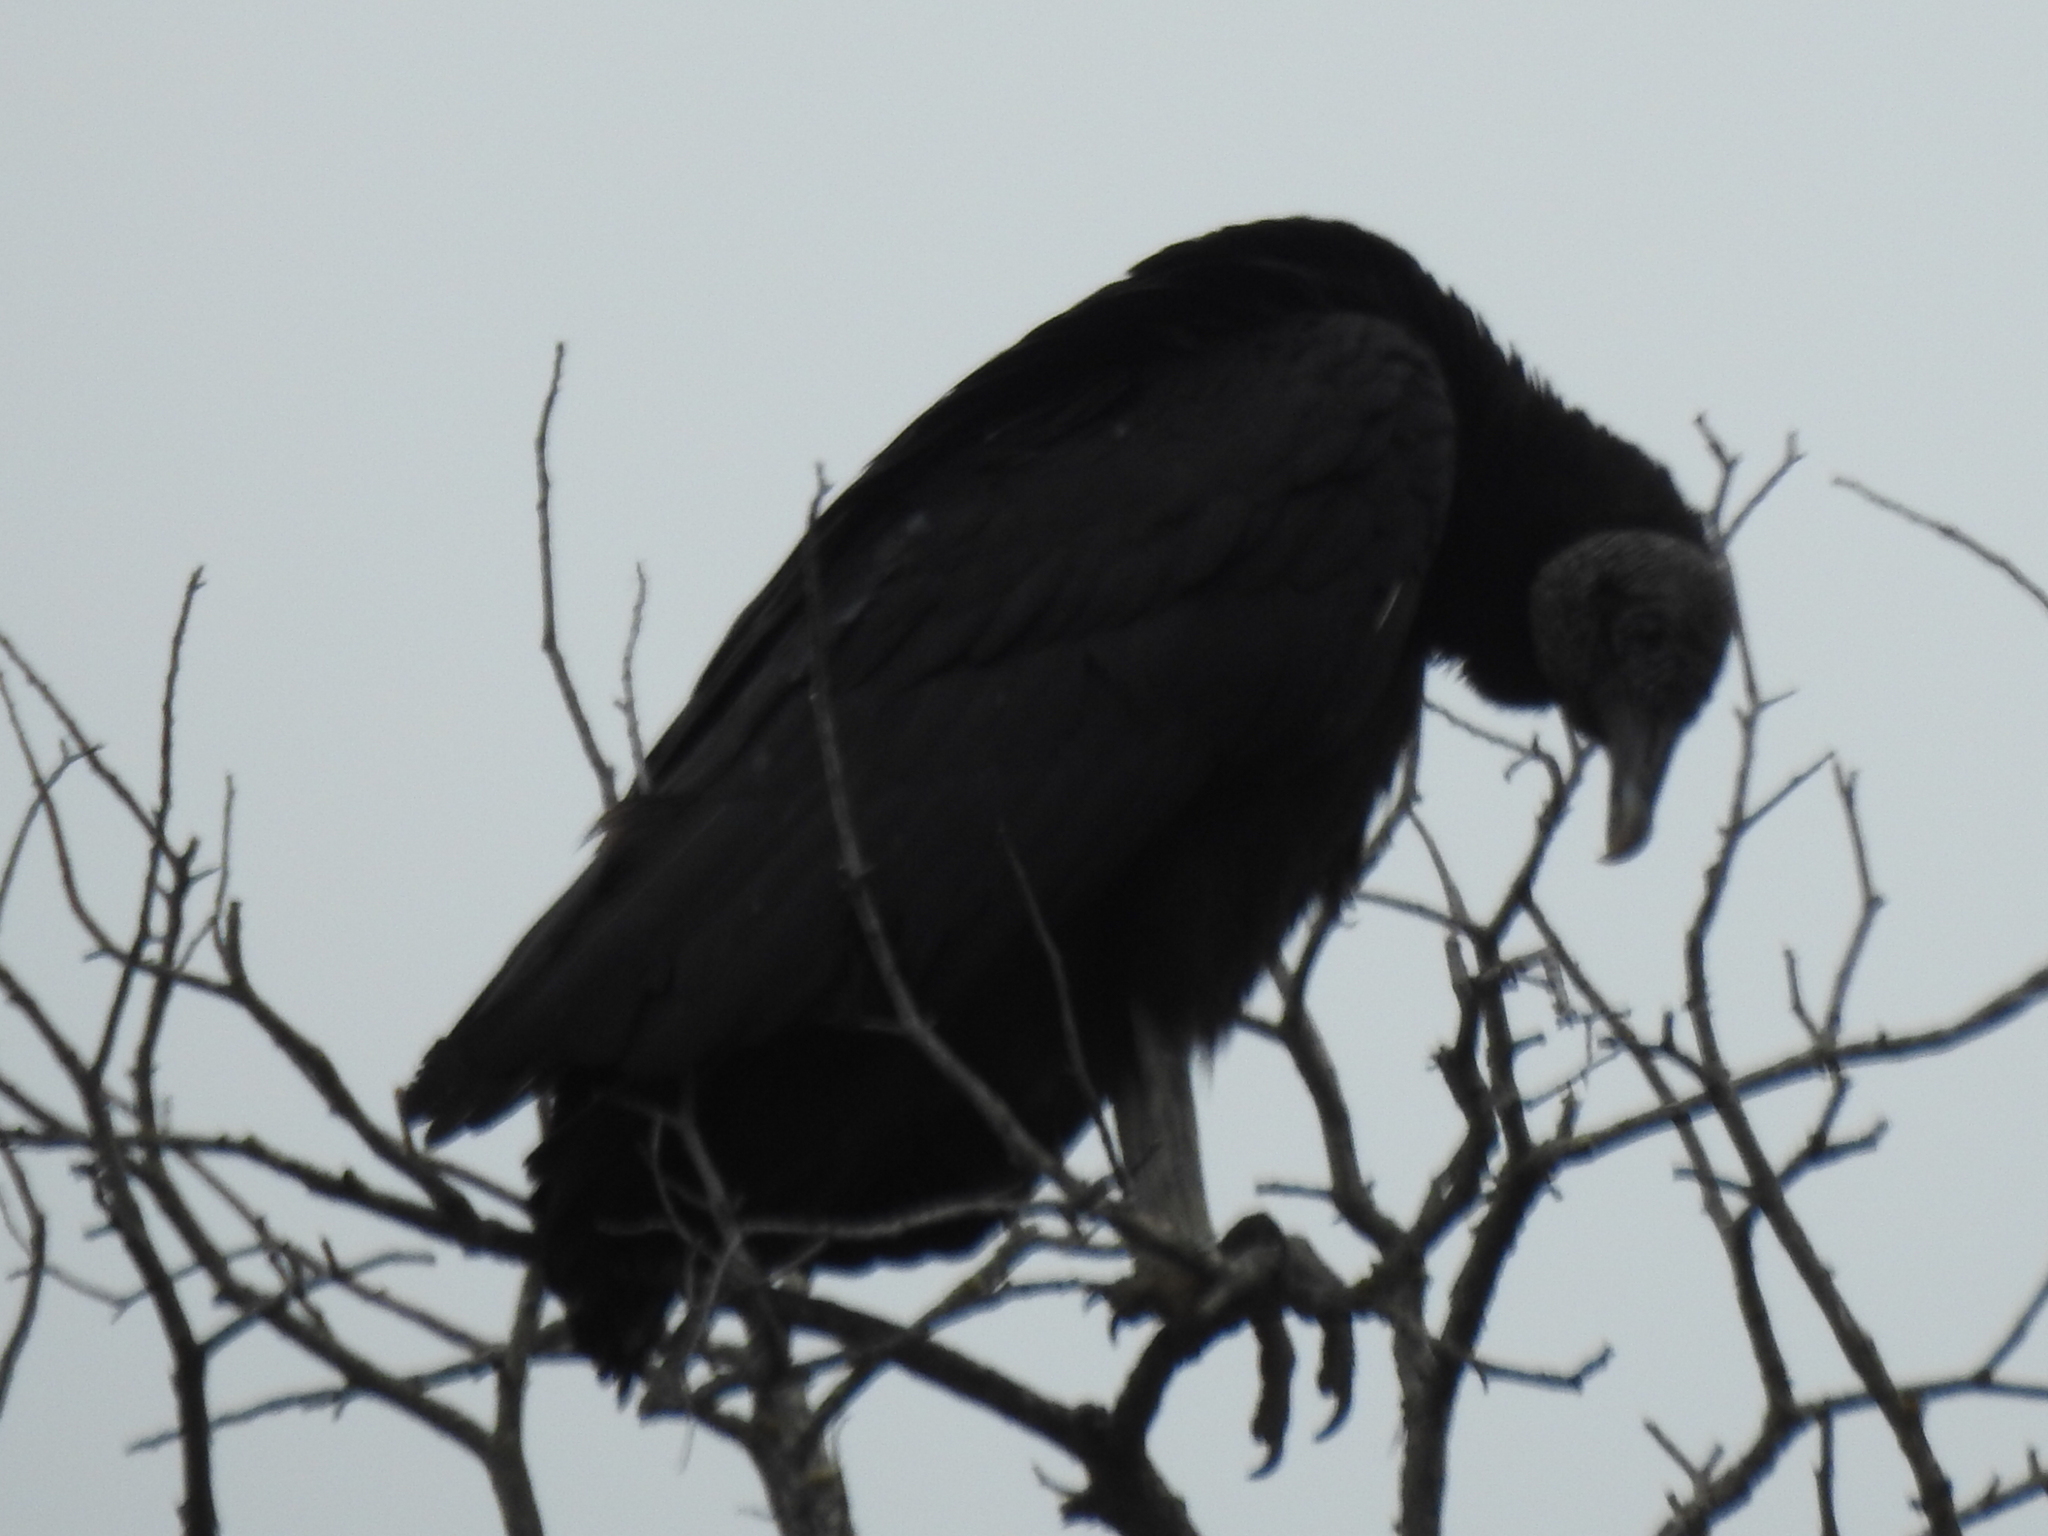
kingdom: Animalia
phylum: Chordata
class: Aves
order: Accipitriformes
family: Cathartidae
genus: Coragyps
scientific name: Coragyps atratus
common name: Black vulture
